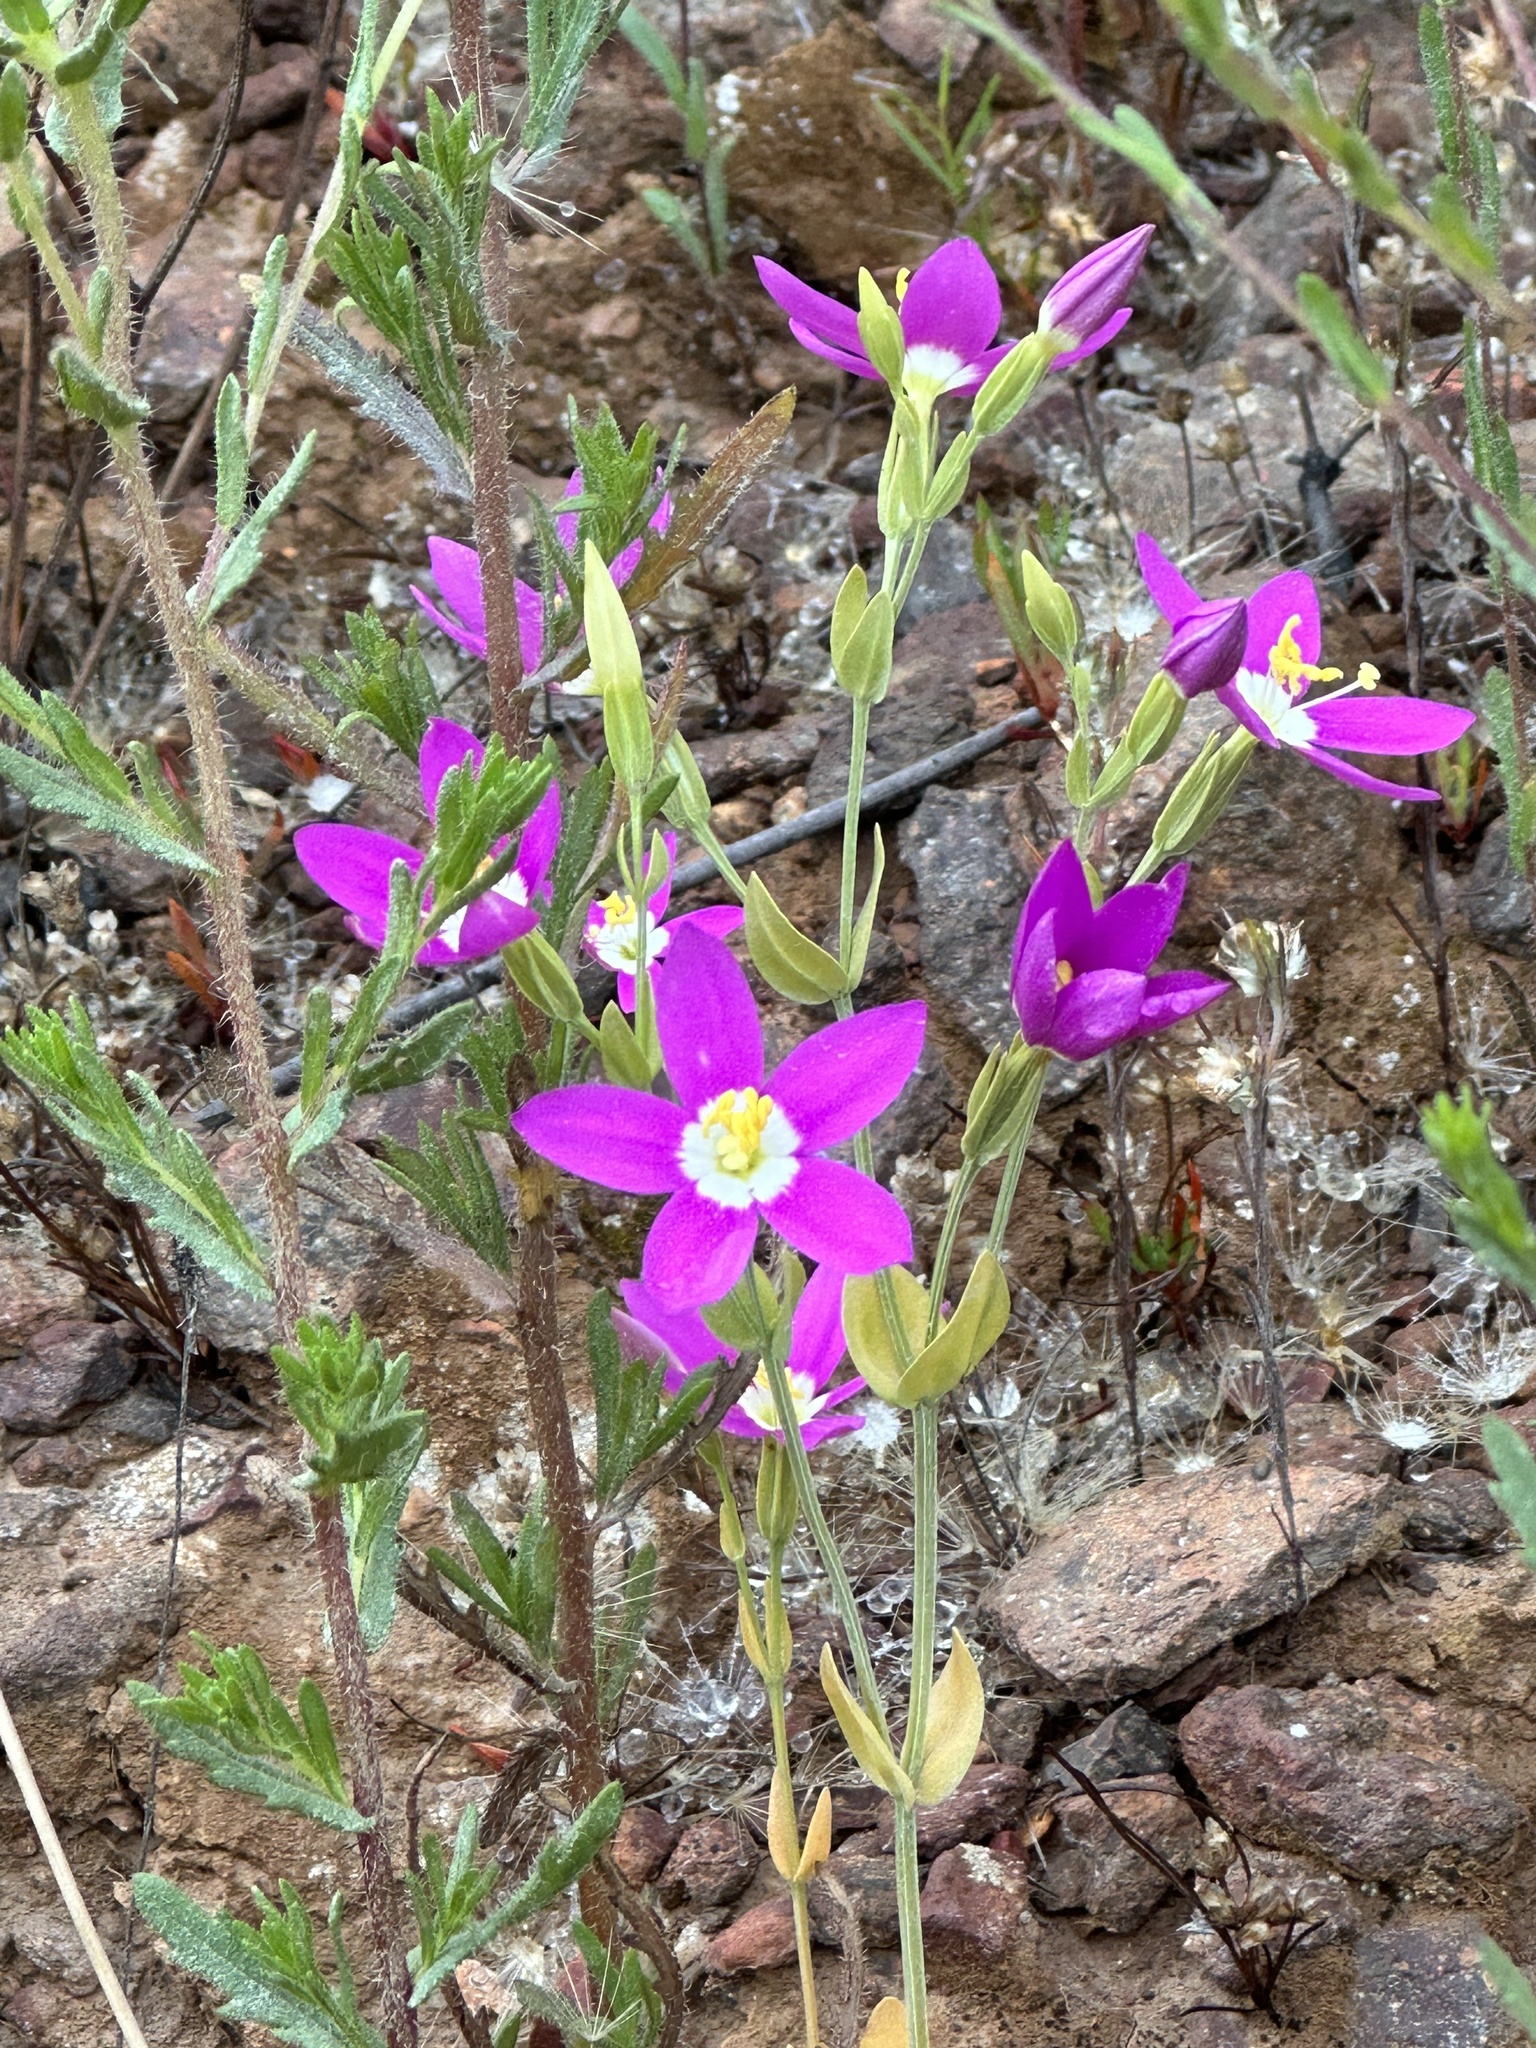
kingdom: Plantae
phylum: Tracheophyta
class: Magnoliopsida
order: Gentianales
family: Gentianaceae
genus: Zeltnera
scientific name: Zeltnera venusta
